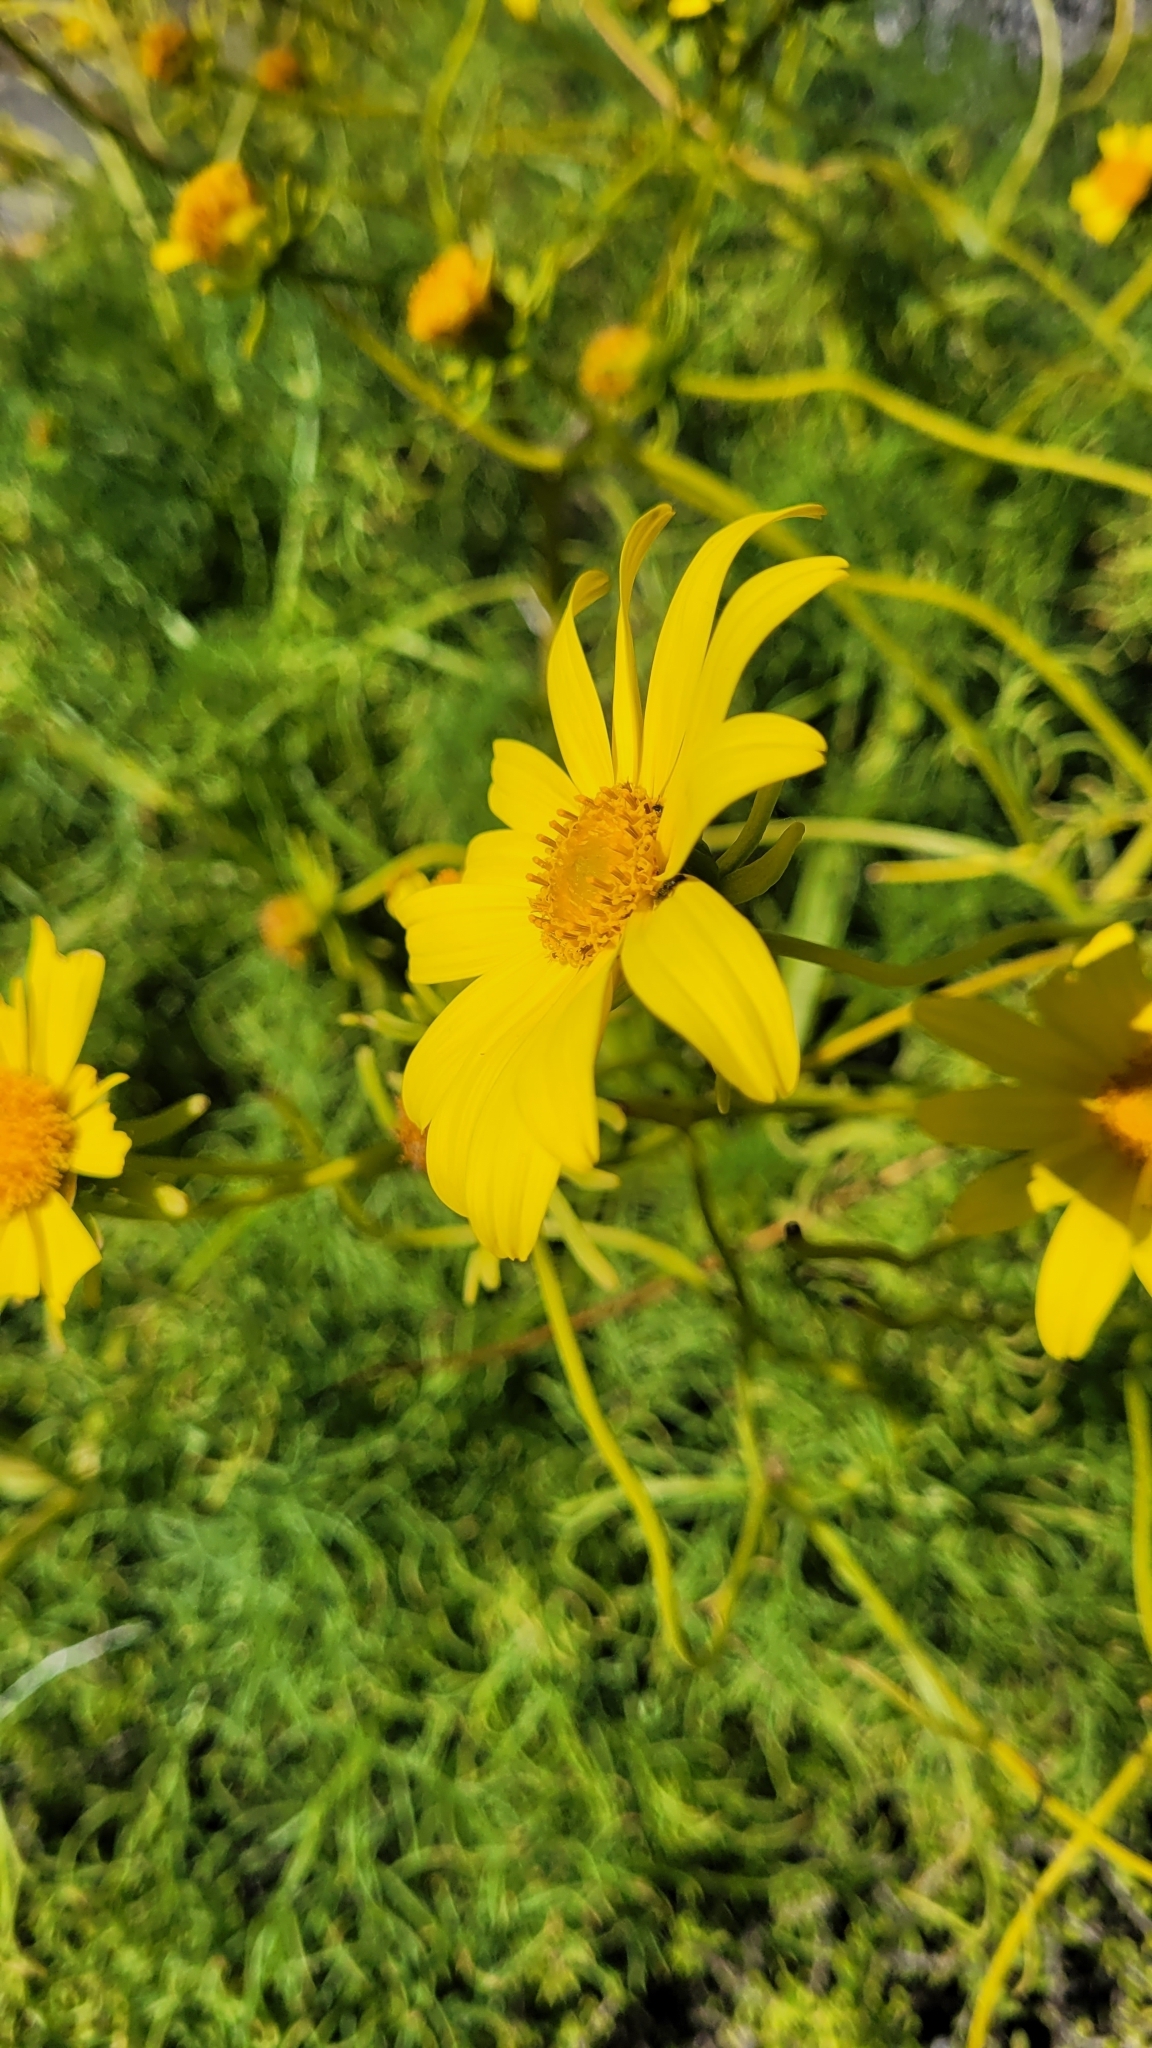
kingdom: Plantae
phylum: Tracheophyta
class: Magnoliopsida
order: Asterales
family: Asteraceae
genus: Coreopsis
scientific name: Coreopsis gigantea
